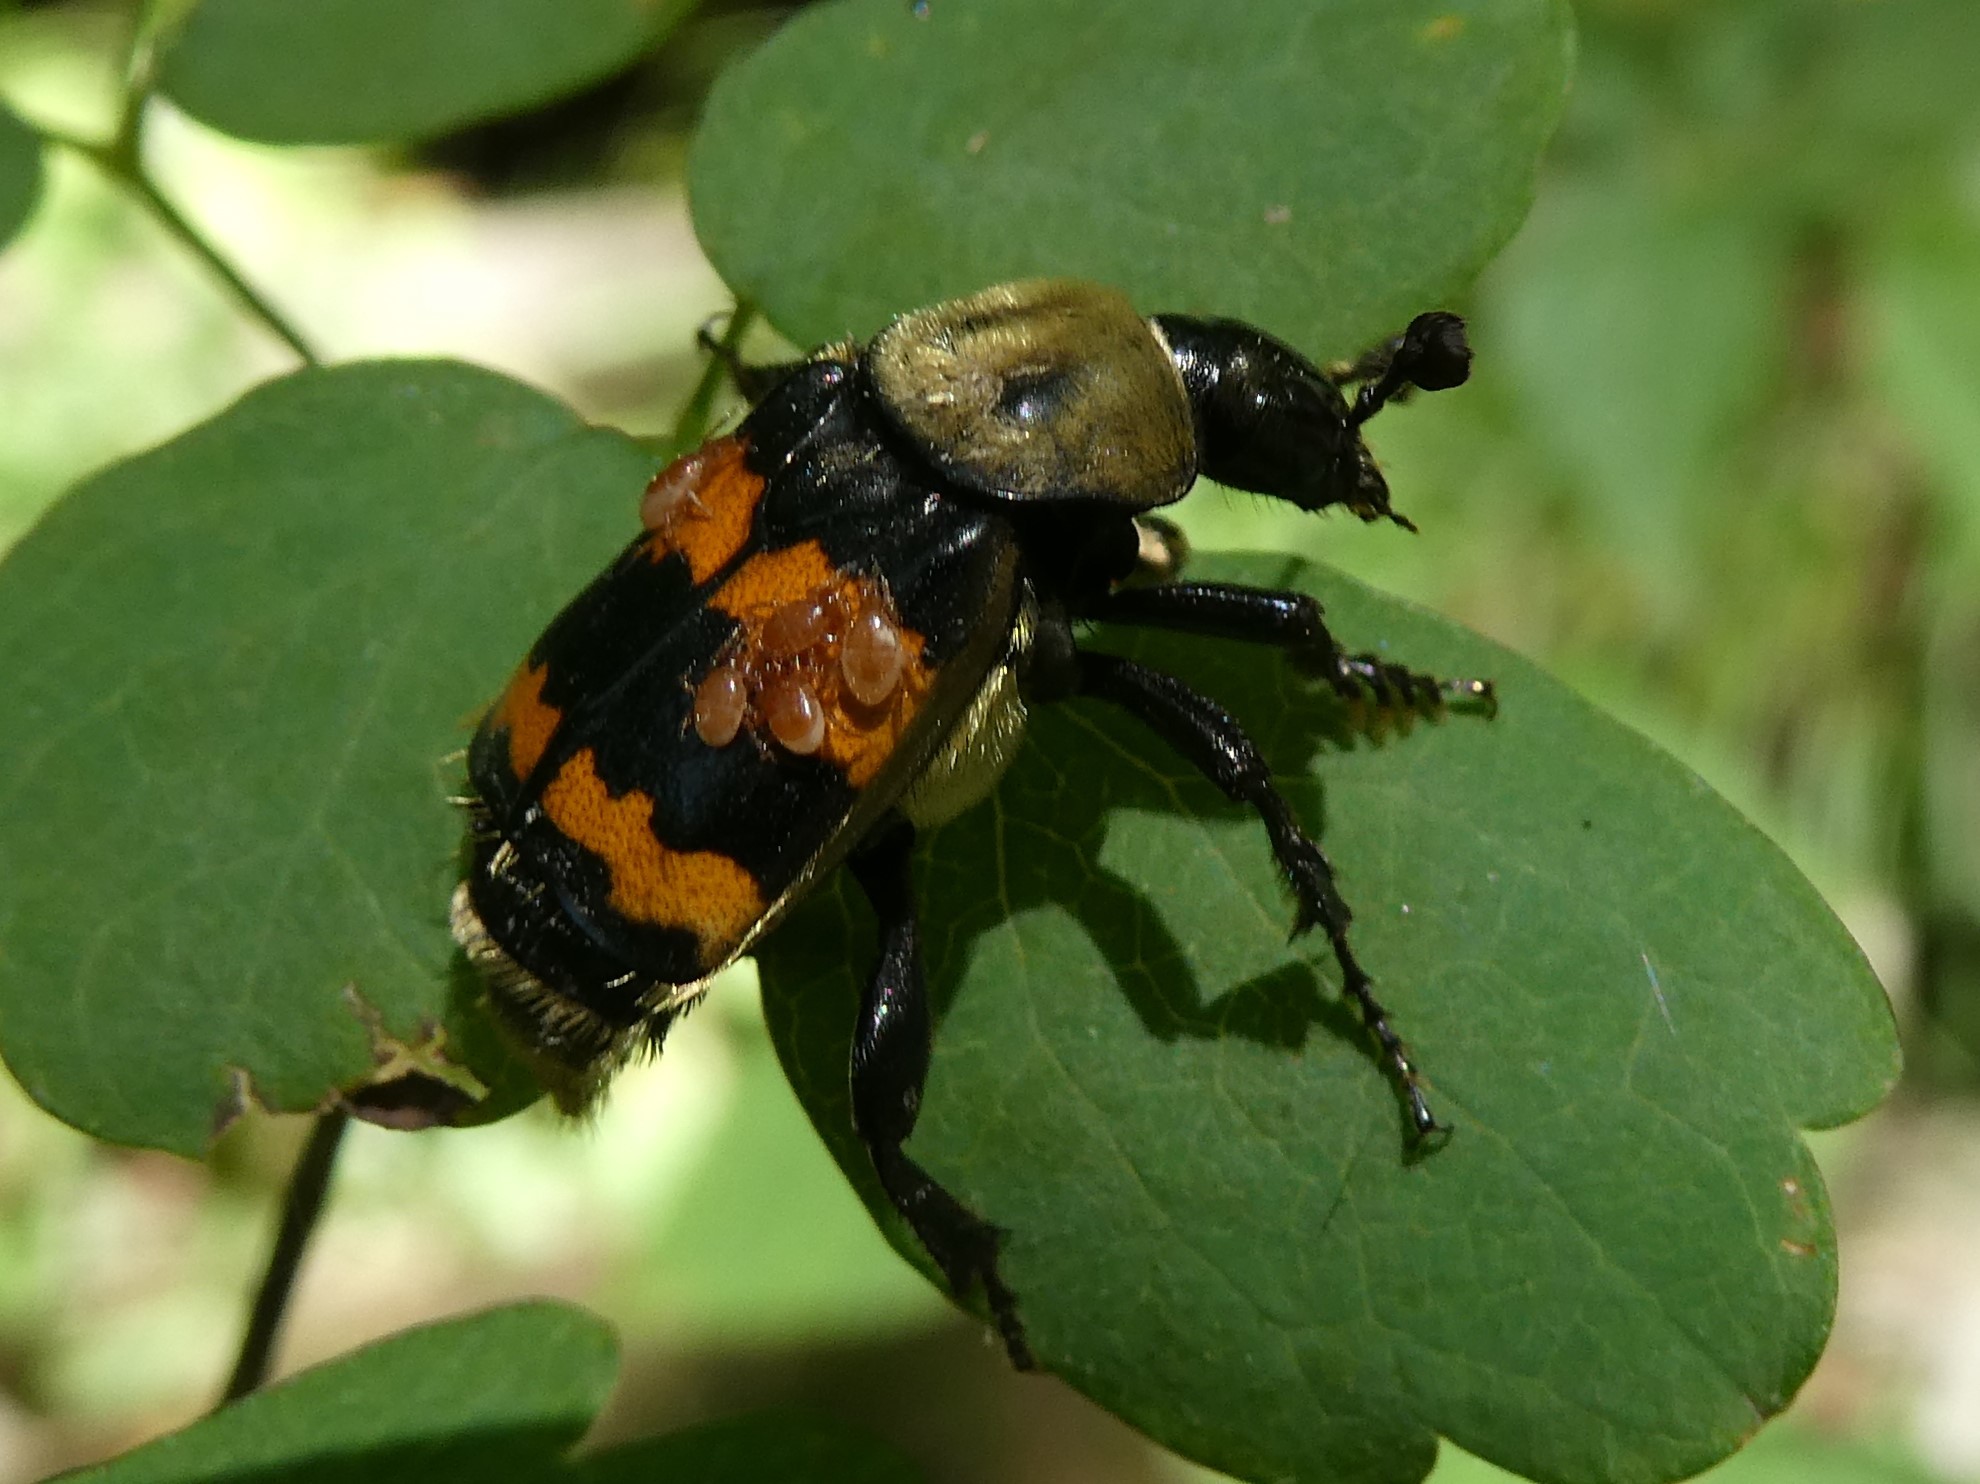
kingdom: Animalia
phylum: Arthropoda
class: Insecta
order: Coleoptera
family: Staphylinidae
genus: Nicrophorus
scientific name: Nicrophorus tomentosus
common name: Tomentose burying beetle
